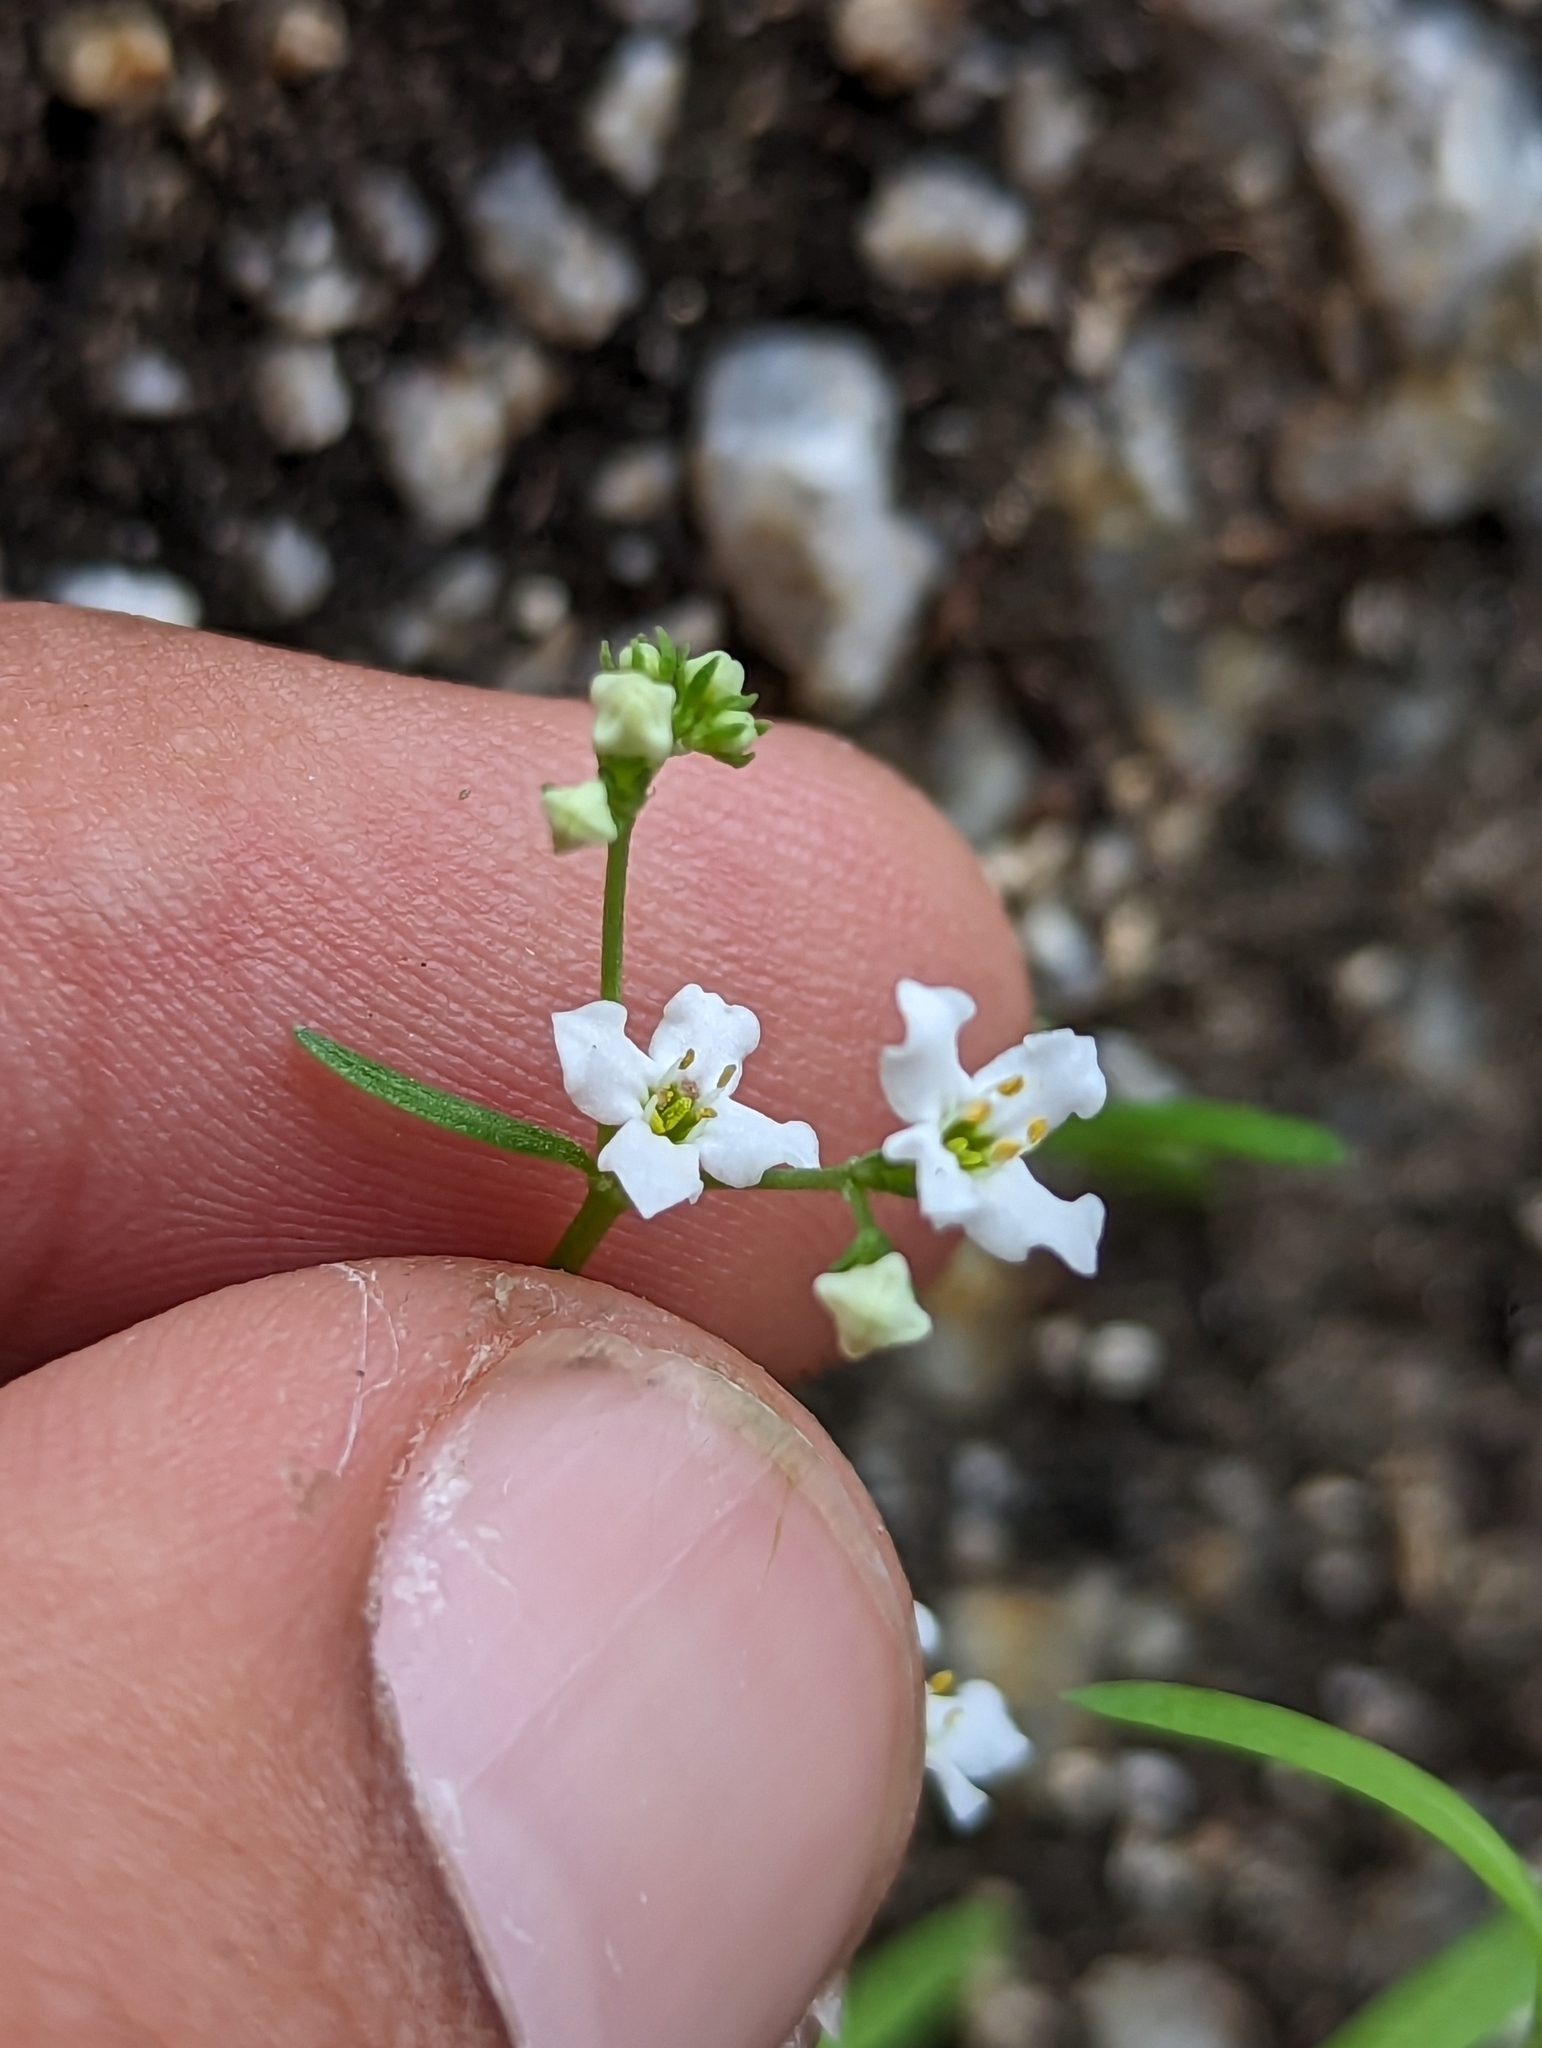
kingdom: Plantae
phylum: Tracheophyta
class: Magnoliopsida
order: Gentianales
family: Rubiaceae
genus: Stenotis
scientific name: Stenotis arenaria
